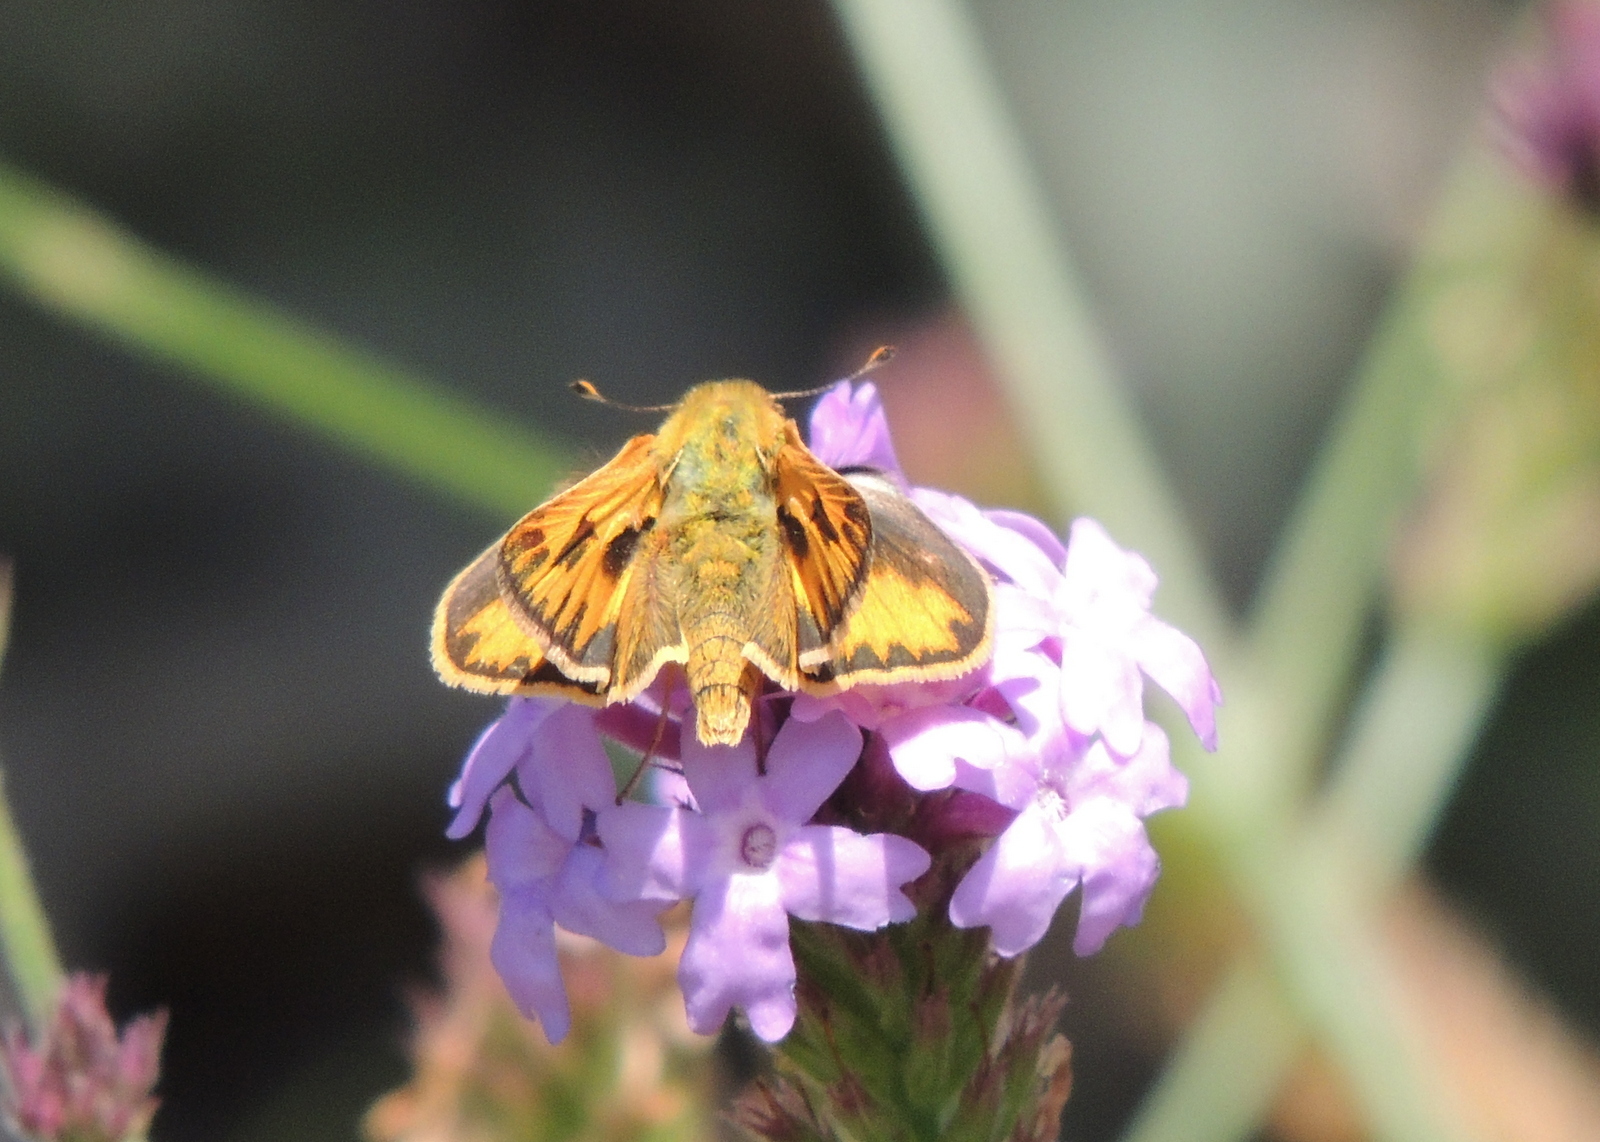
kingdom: Animalia
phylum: Arthropoda
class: Insecta
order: Lepidoptera
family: Hesperiidae
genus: Hylephila
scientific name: Hylephila phyleus
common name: Fiery skipper
